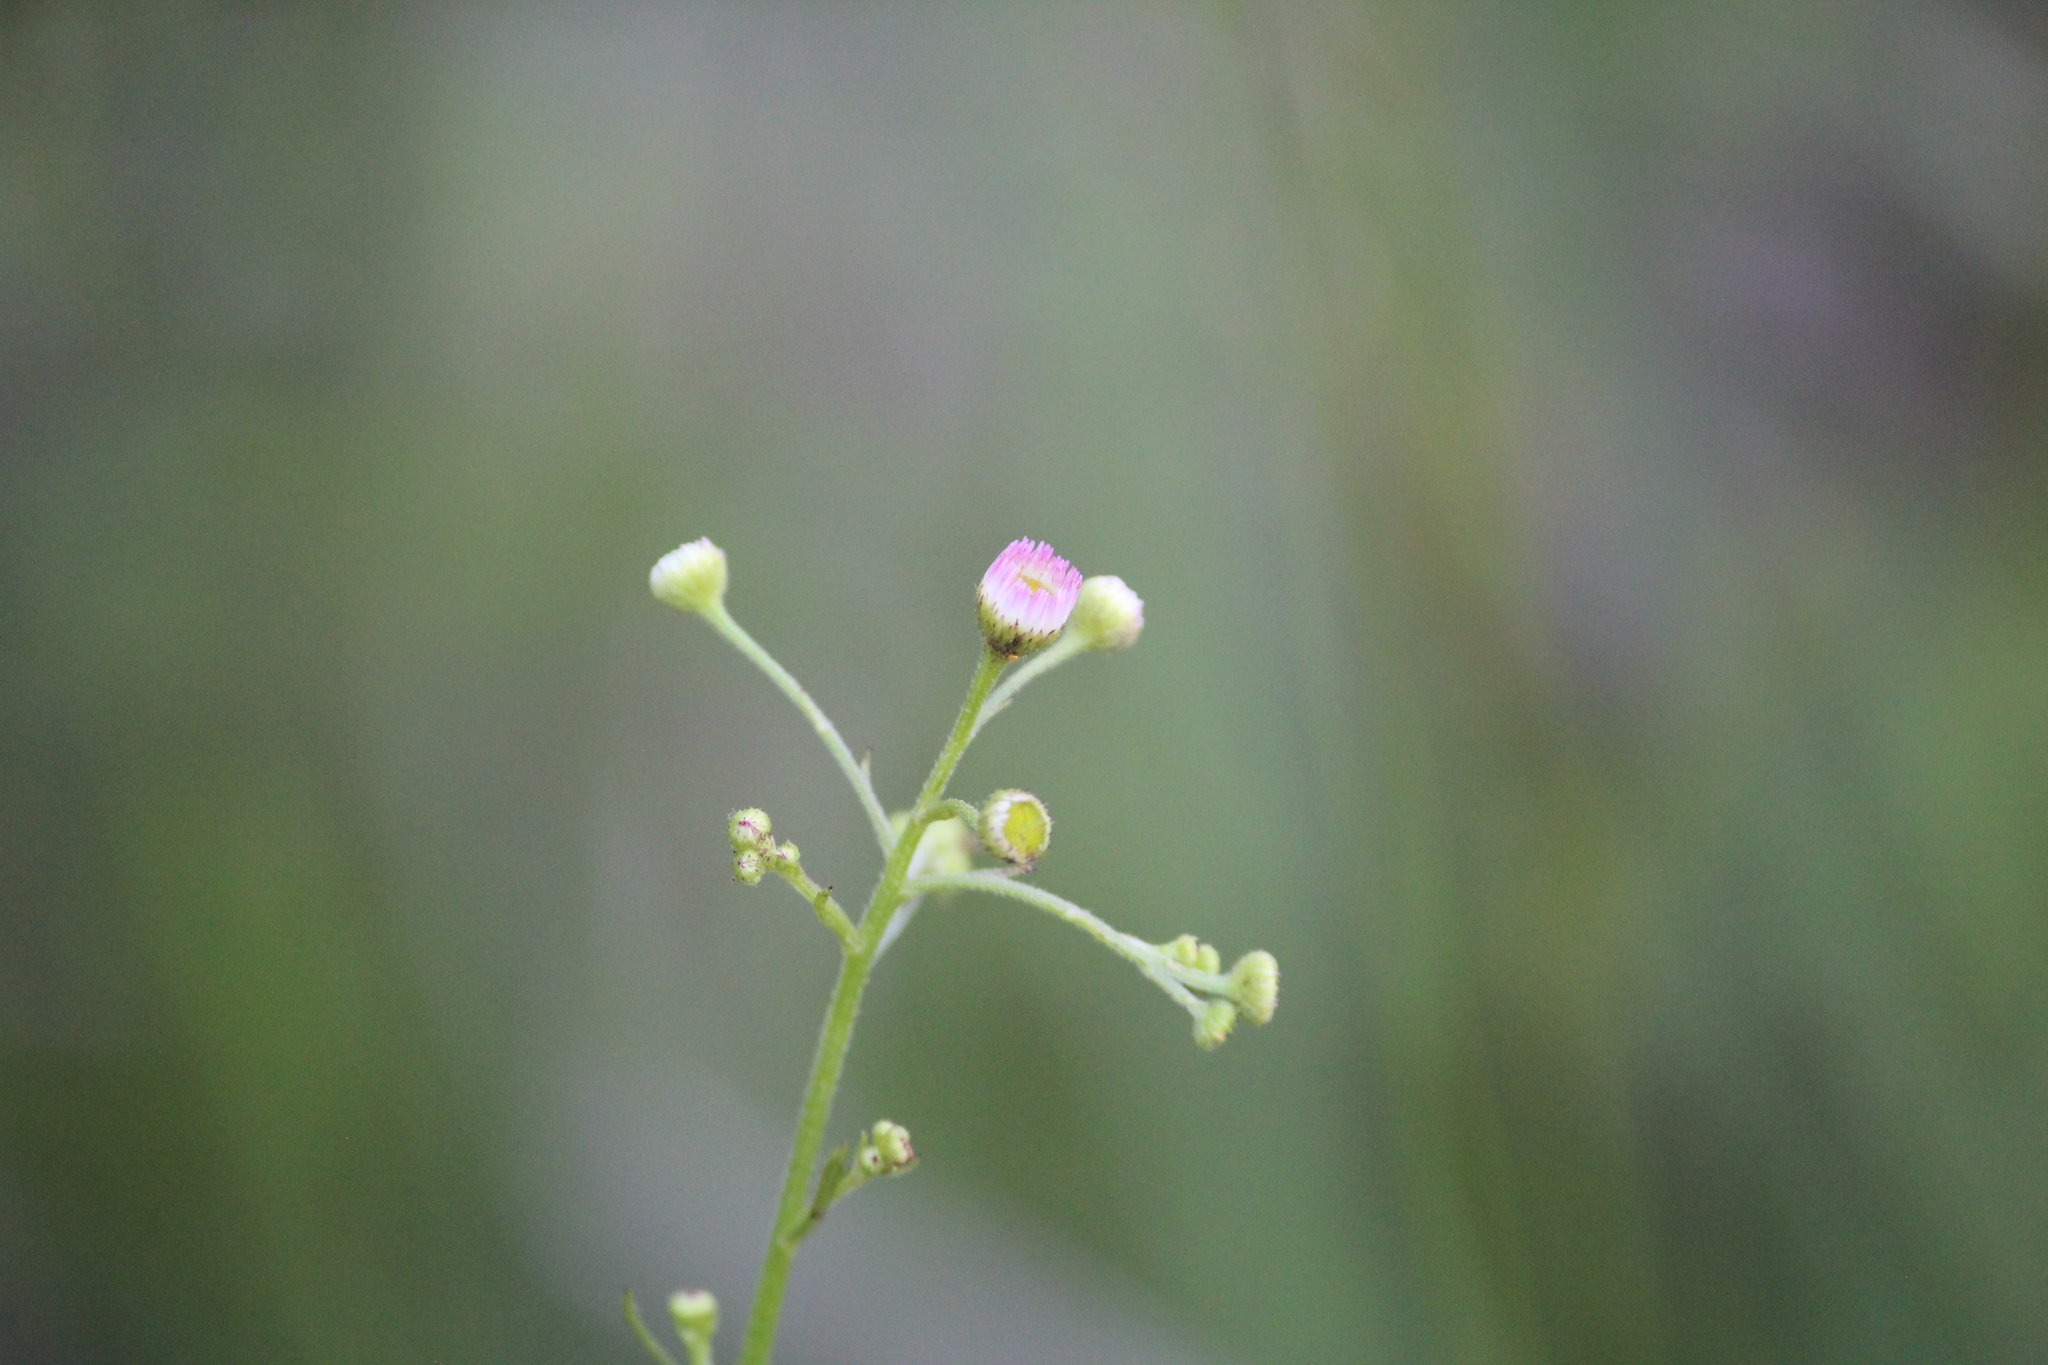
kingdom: Plantae
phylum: Tracheophyta
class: Magnoliopsida
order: Asterales
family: Asteraceae
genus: Erigeron
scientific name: Erigeron strigosus
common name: Common eastern fleabane
